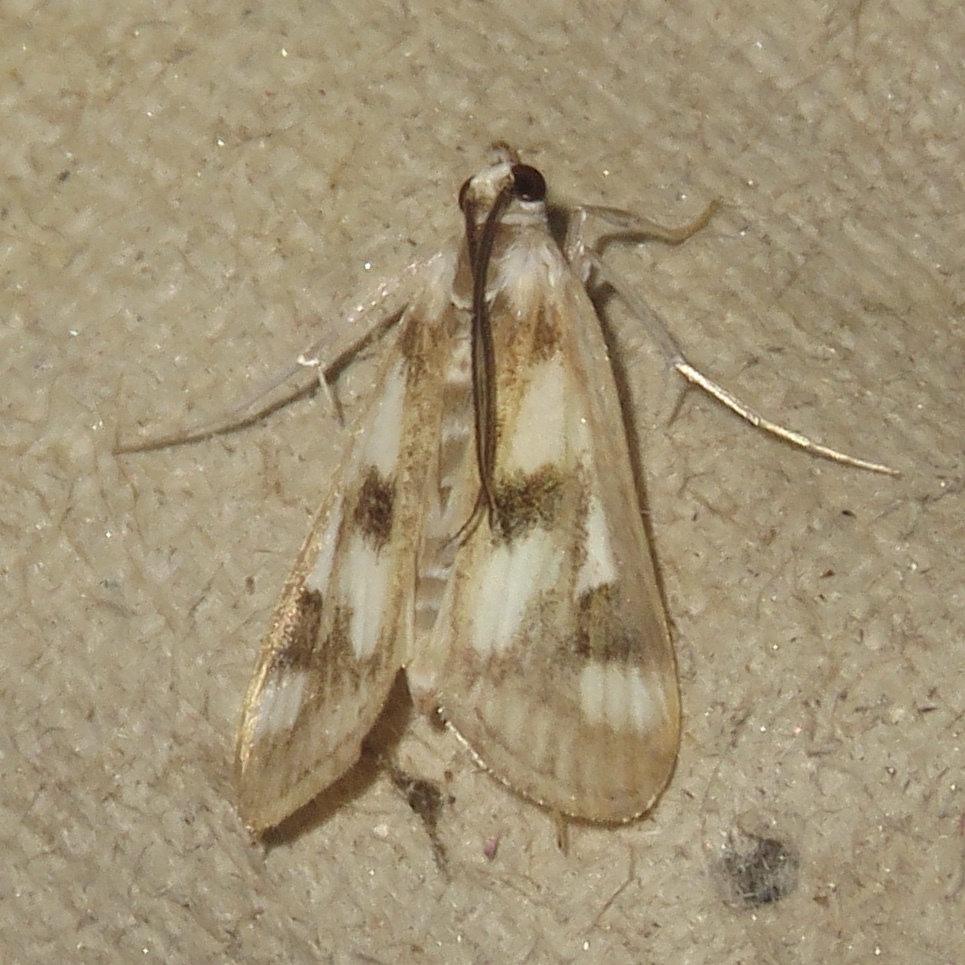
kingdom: Animalia
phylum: Arthropoda
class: Insecta
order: Lepidoptera
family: Crambidae
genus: Parapoynx
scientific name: Parapoynx maculalis
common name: Polymorphic pondweed moth
